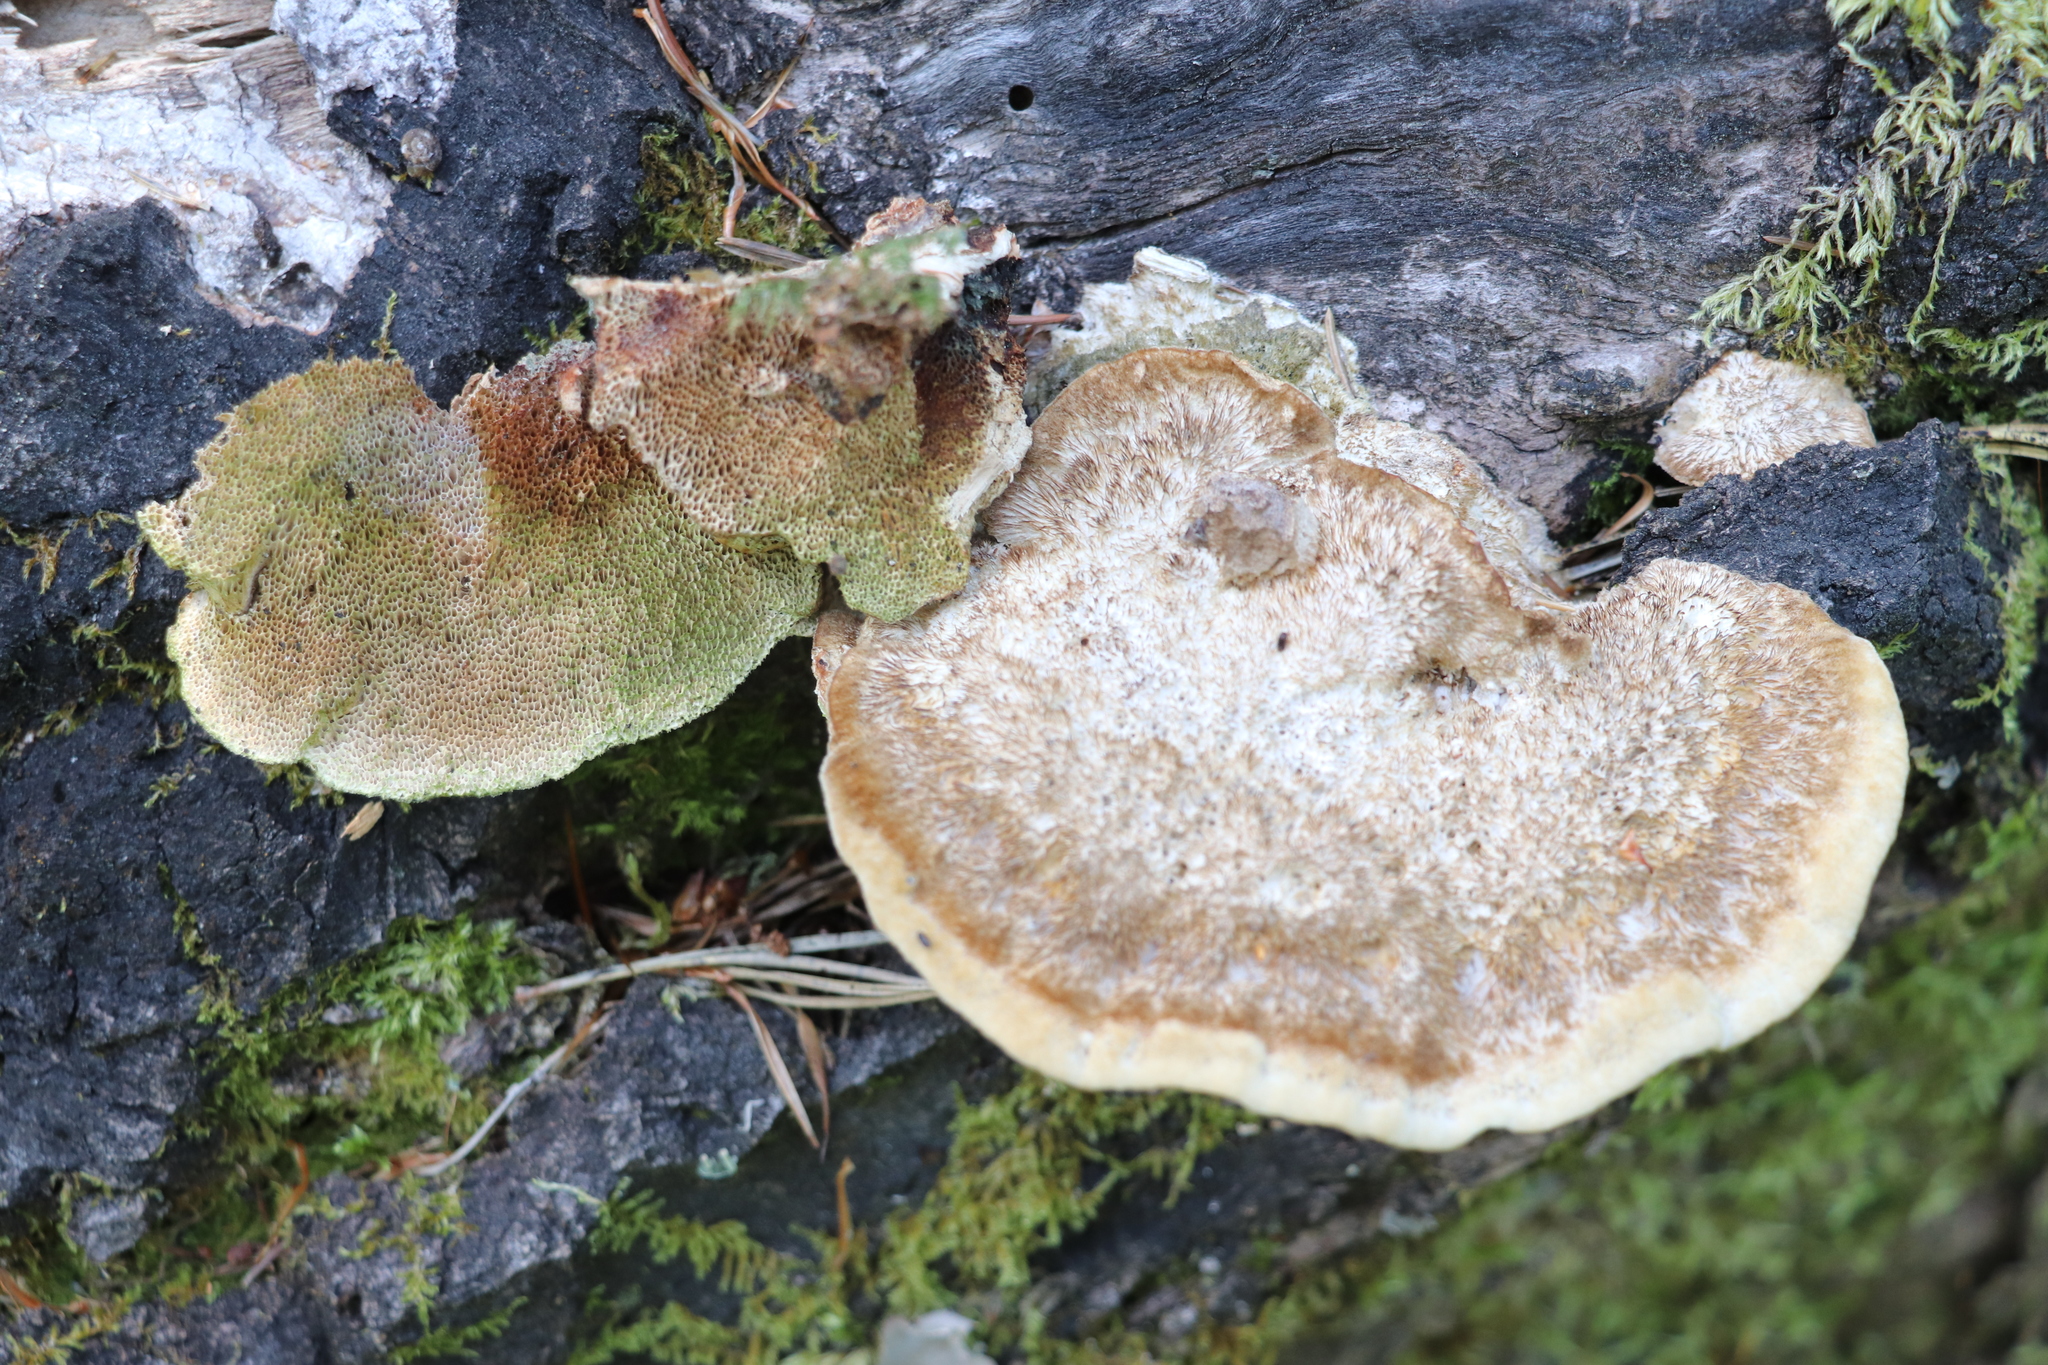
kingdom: Fungi
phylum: Basidiomycota
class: Agaricomycetes
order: Polyporales
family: Polyporaceae
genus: Trametes
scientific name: Trametes trogii
